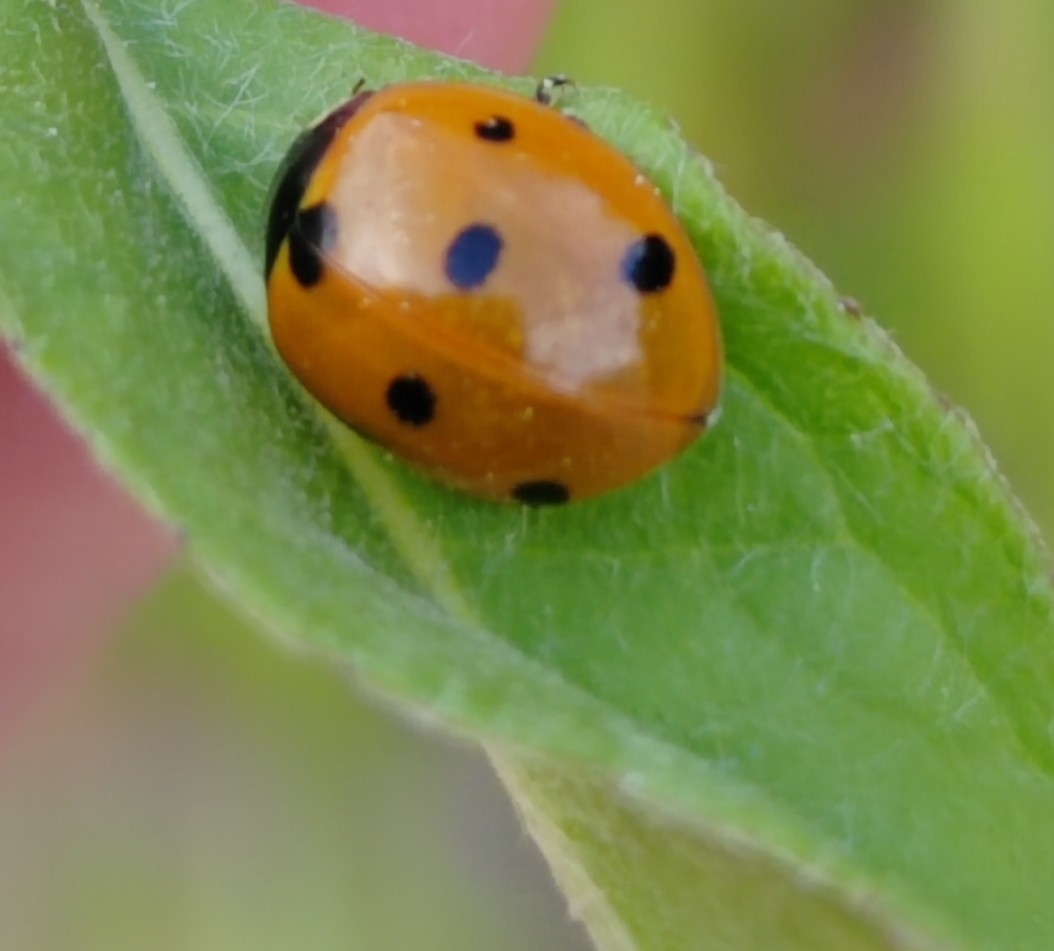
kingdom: Animalia
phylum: Arthropoda
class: Insecta
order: Coleoptera
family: Coccinellidae
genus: Coccinella
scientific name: Coccinella septempunctata
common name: Sevenspotted lady beetle
